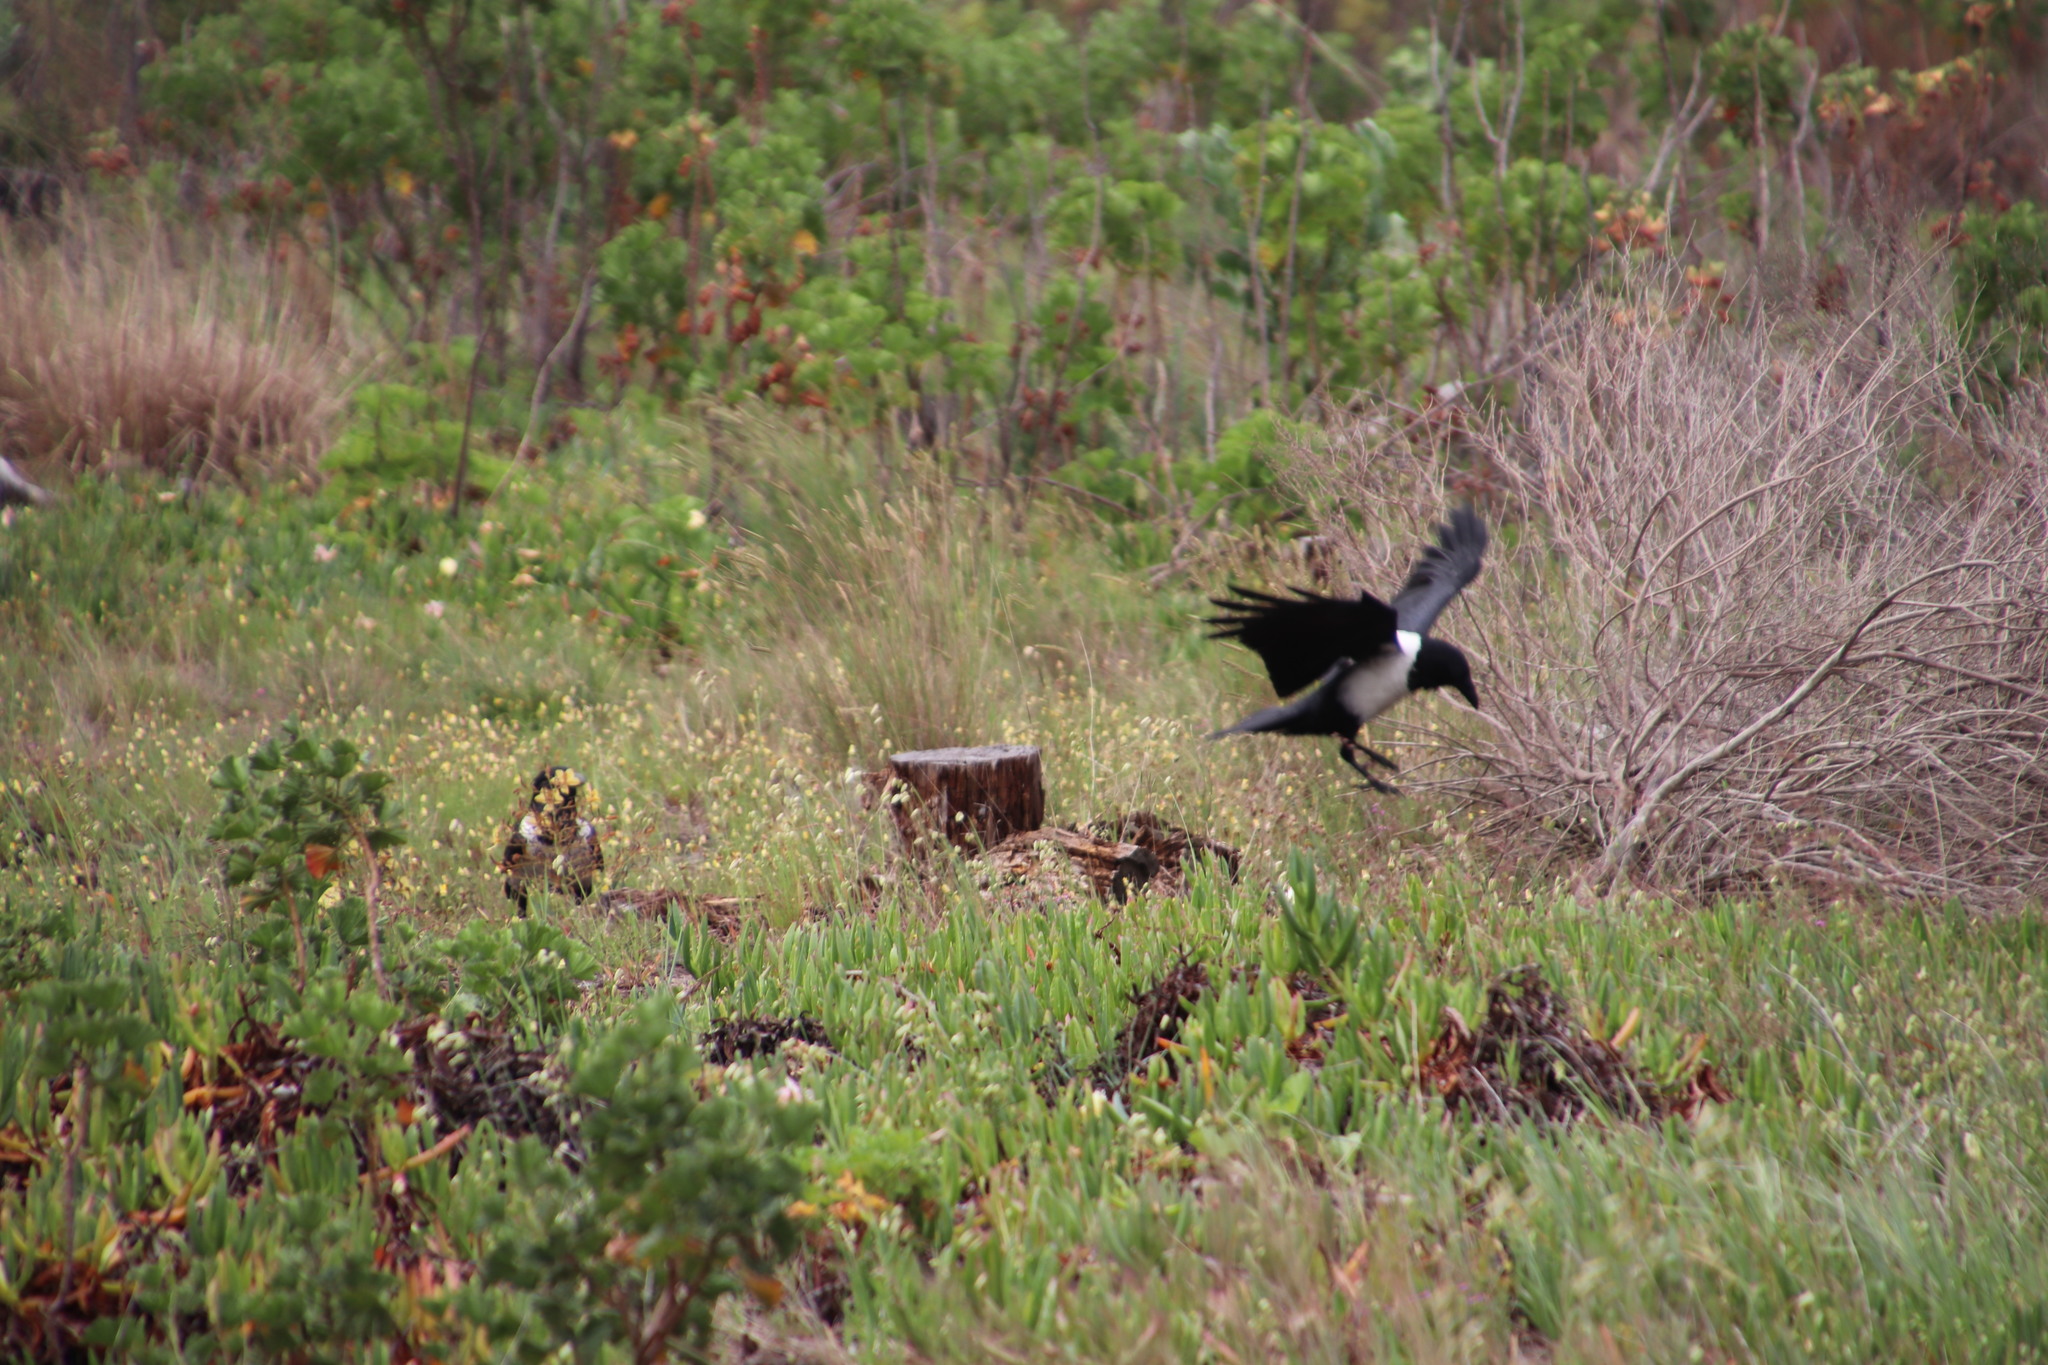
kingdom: Animalia
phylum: Chordata
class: Aves
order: Passeriformes
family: Corvidae
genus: Corvus
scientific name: Corvus albus
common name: Pied crow
